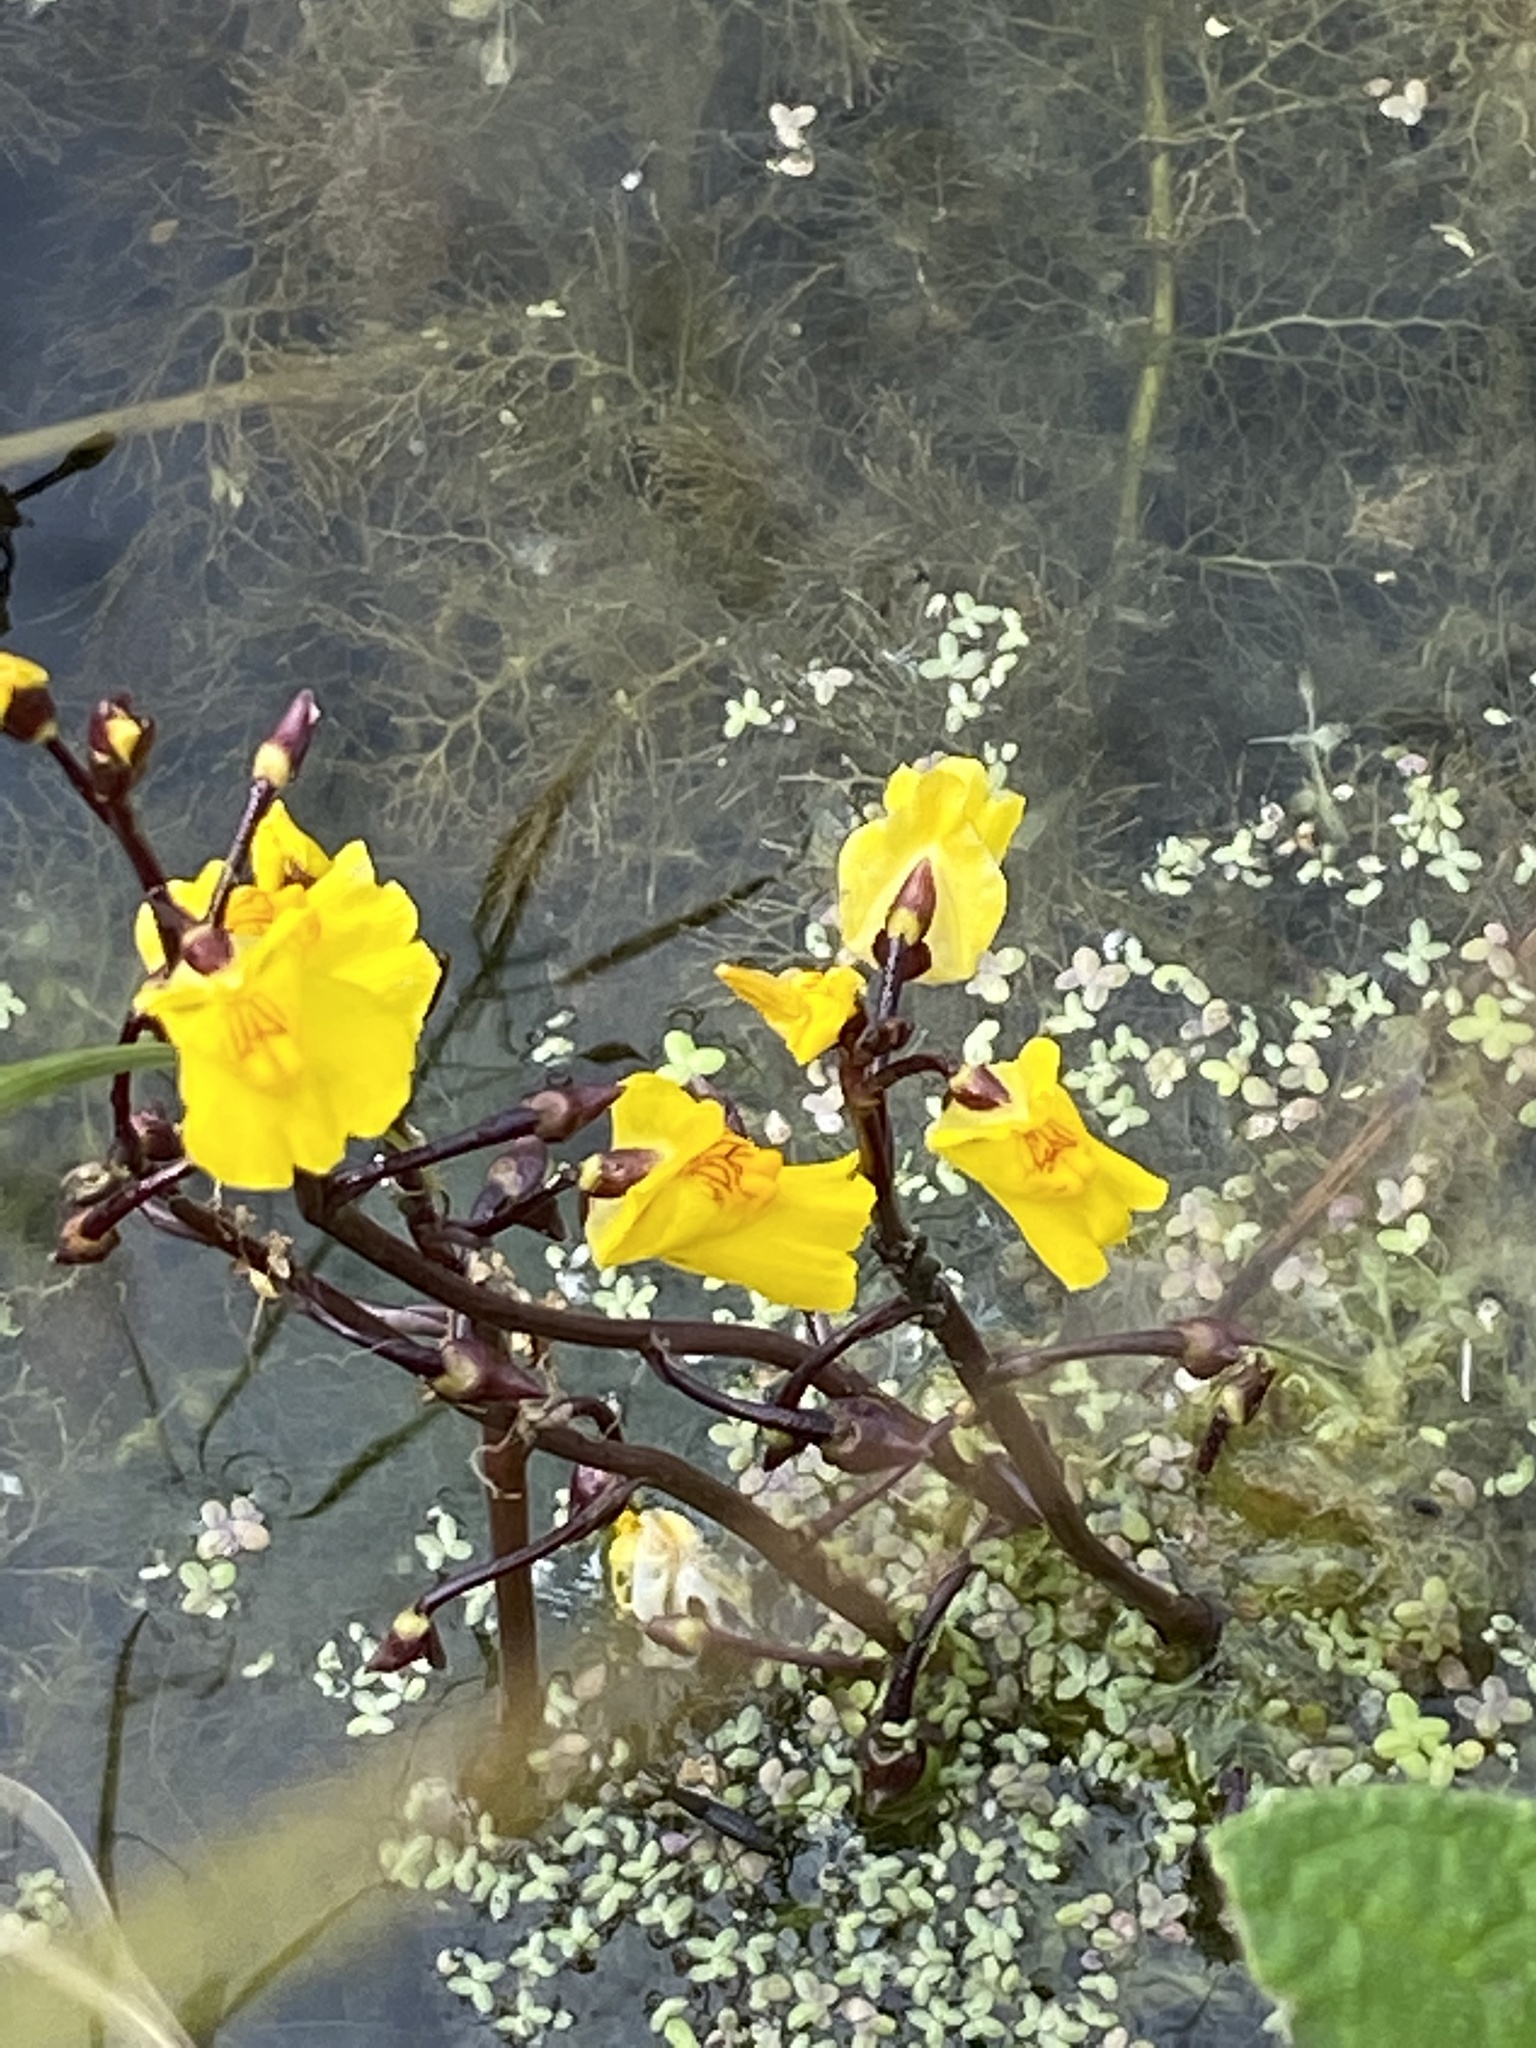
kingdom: Plantae
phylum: Tracheophyta
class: Magnoliopsida
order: Lamiales
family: Lentibulariaceae
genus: Utricularia
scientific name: Utricularia vulgaris
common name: Greater bladderwort
